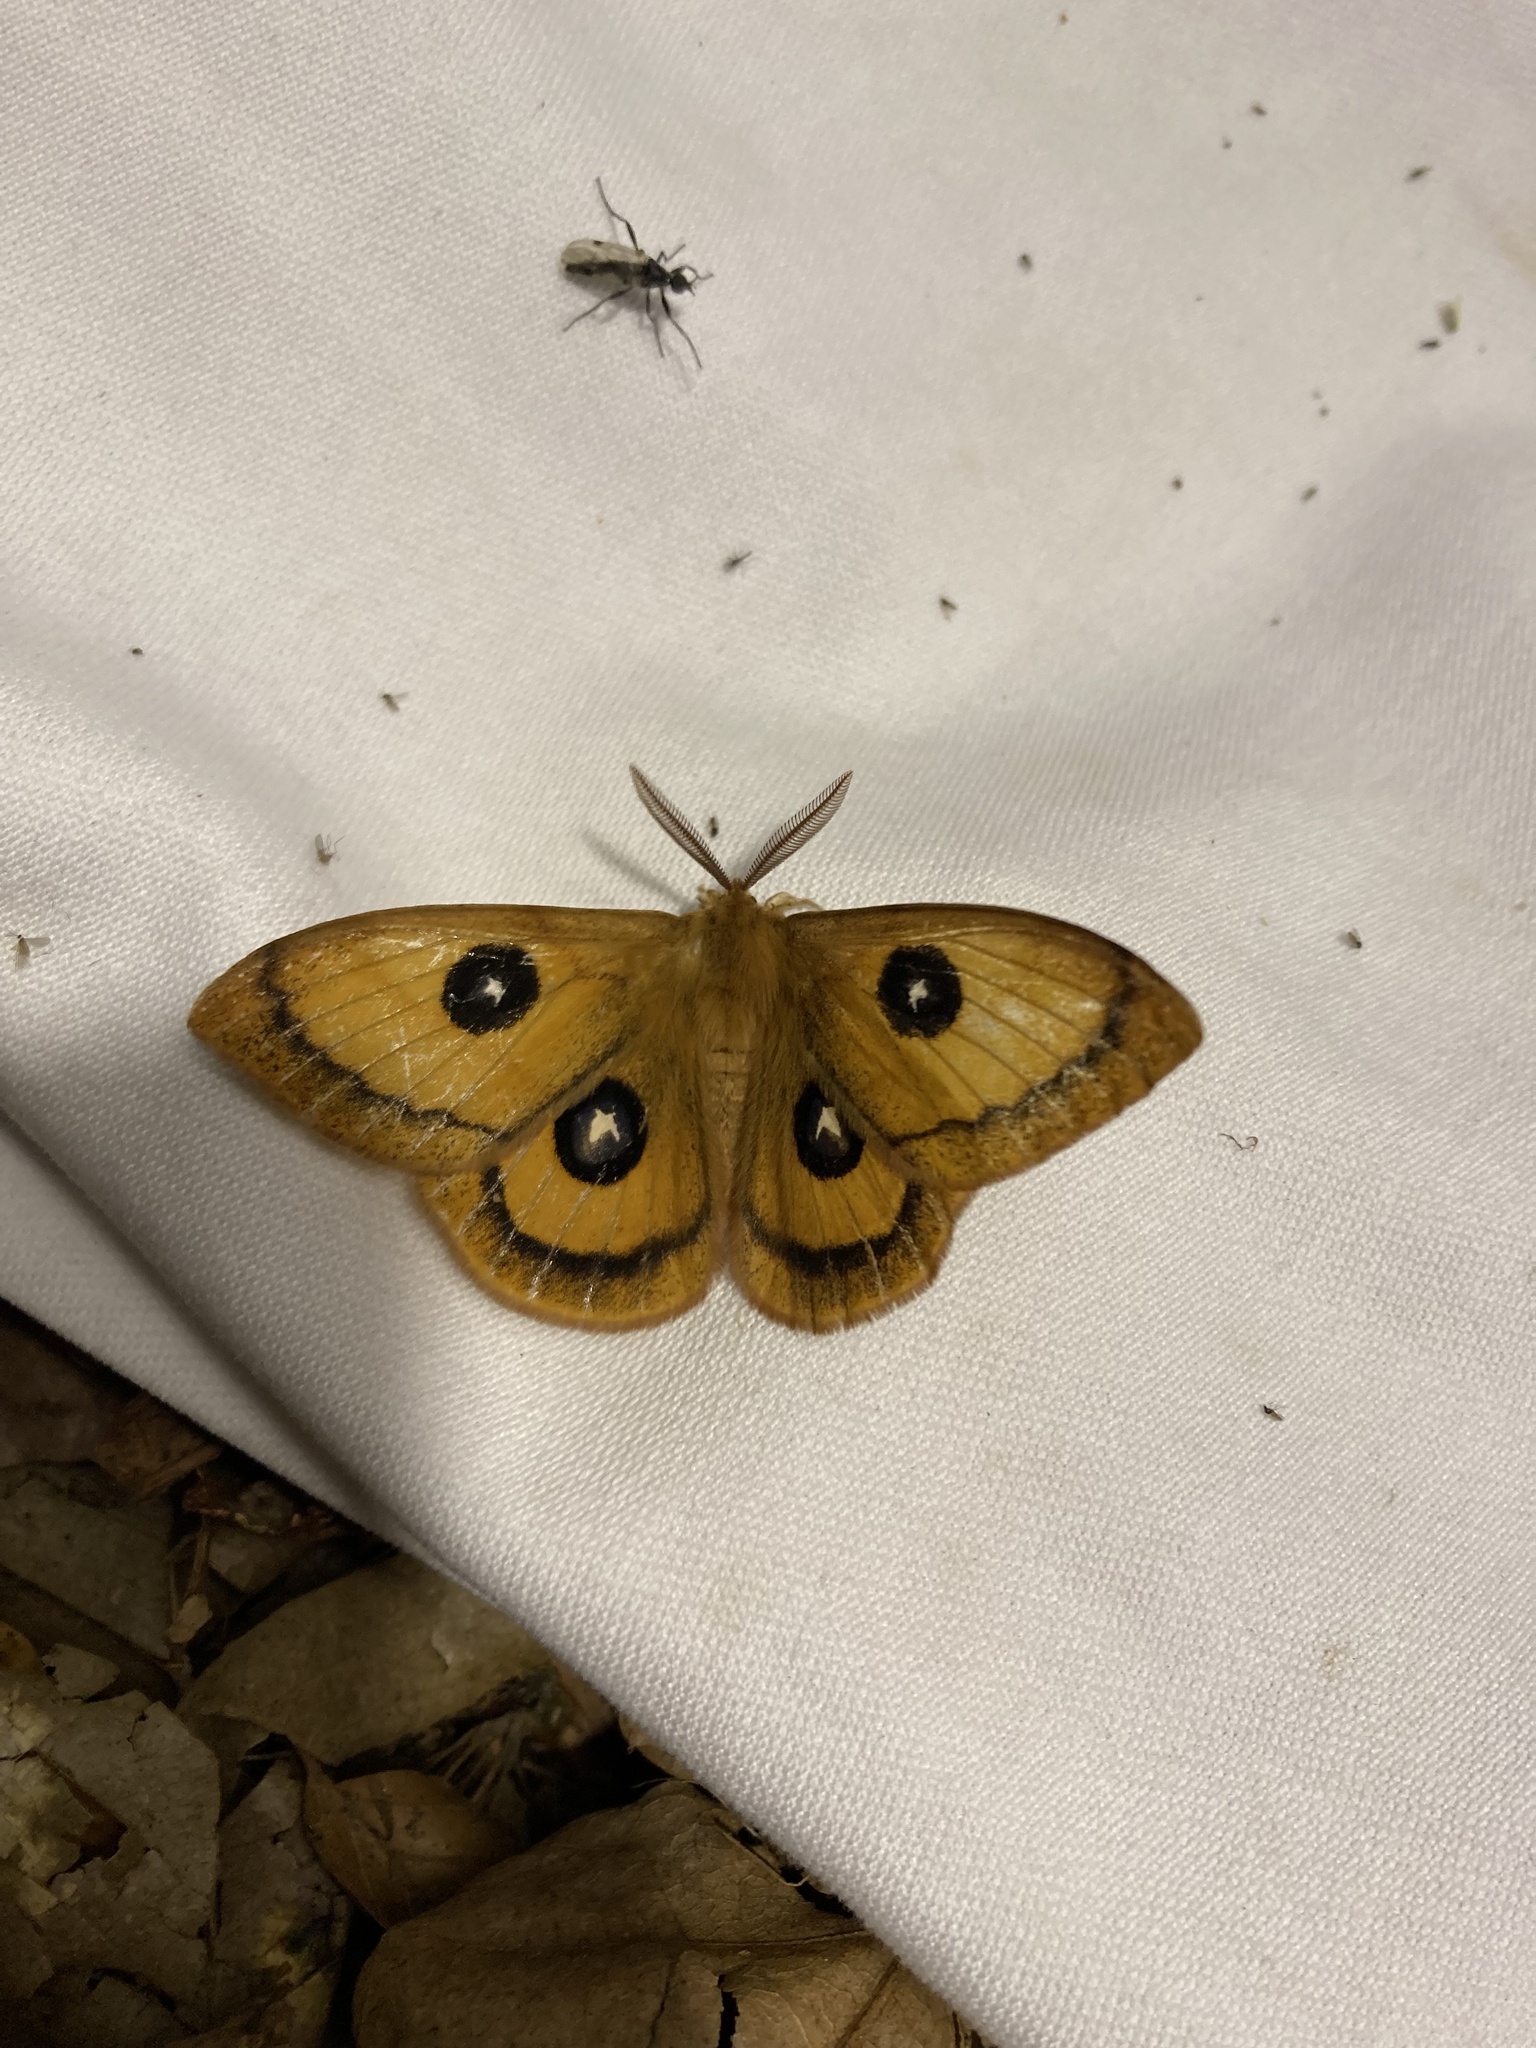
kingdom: Animalia
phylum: Arthropoda
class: Insecta
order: Lepidoptera
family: Saturniidae
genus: Aglia
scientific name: Aglia tau
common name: Tau emperor
